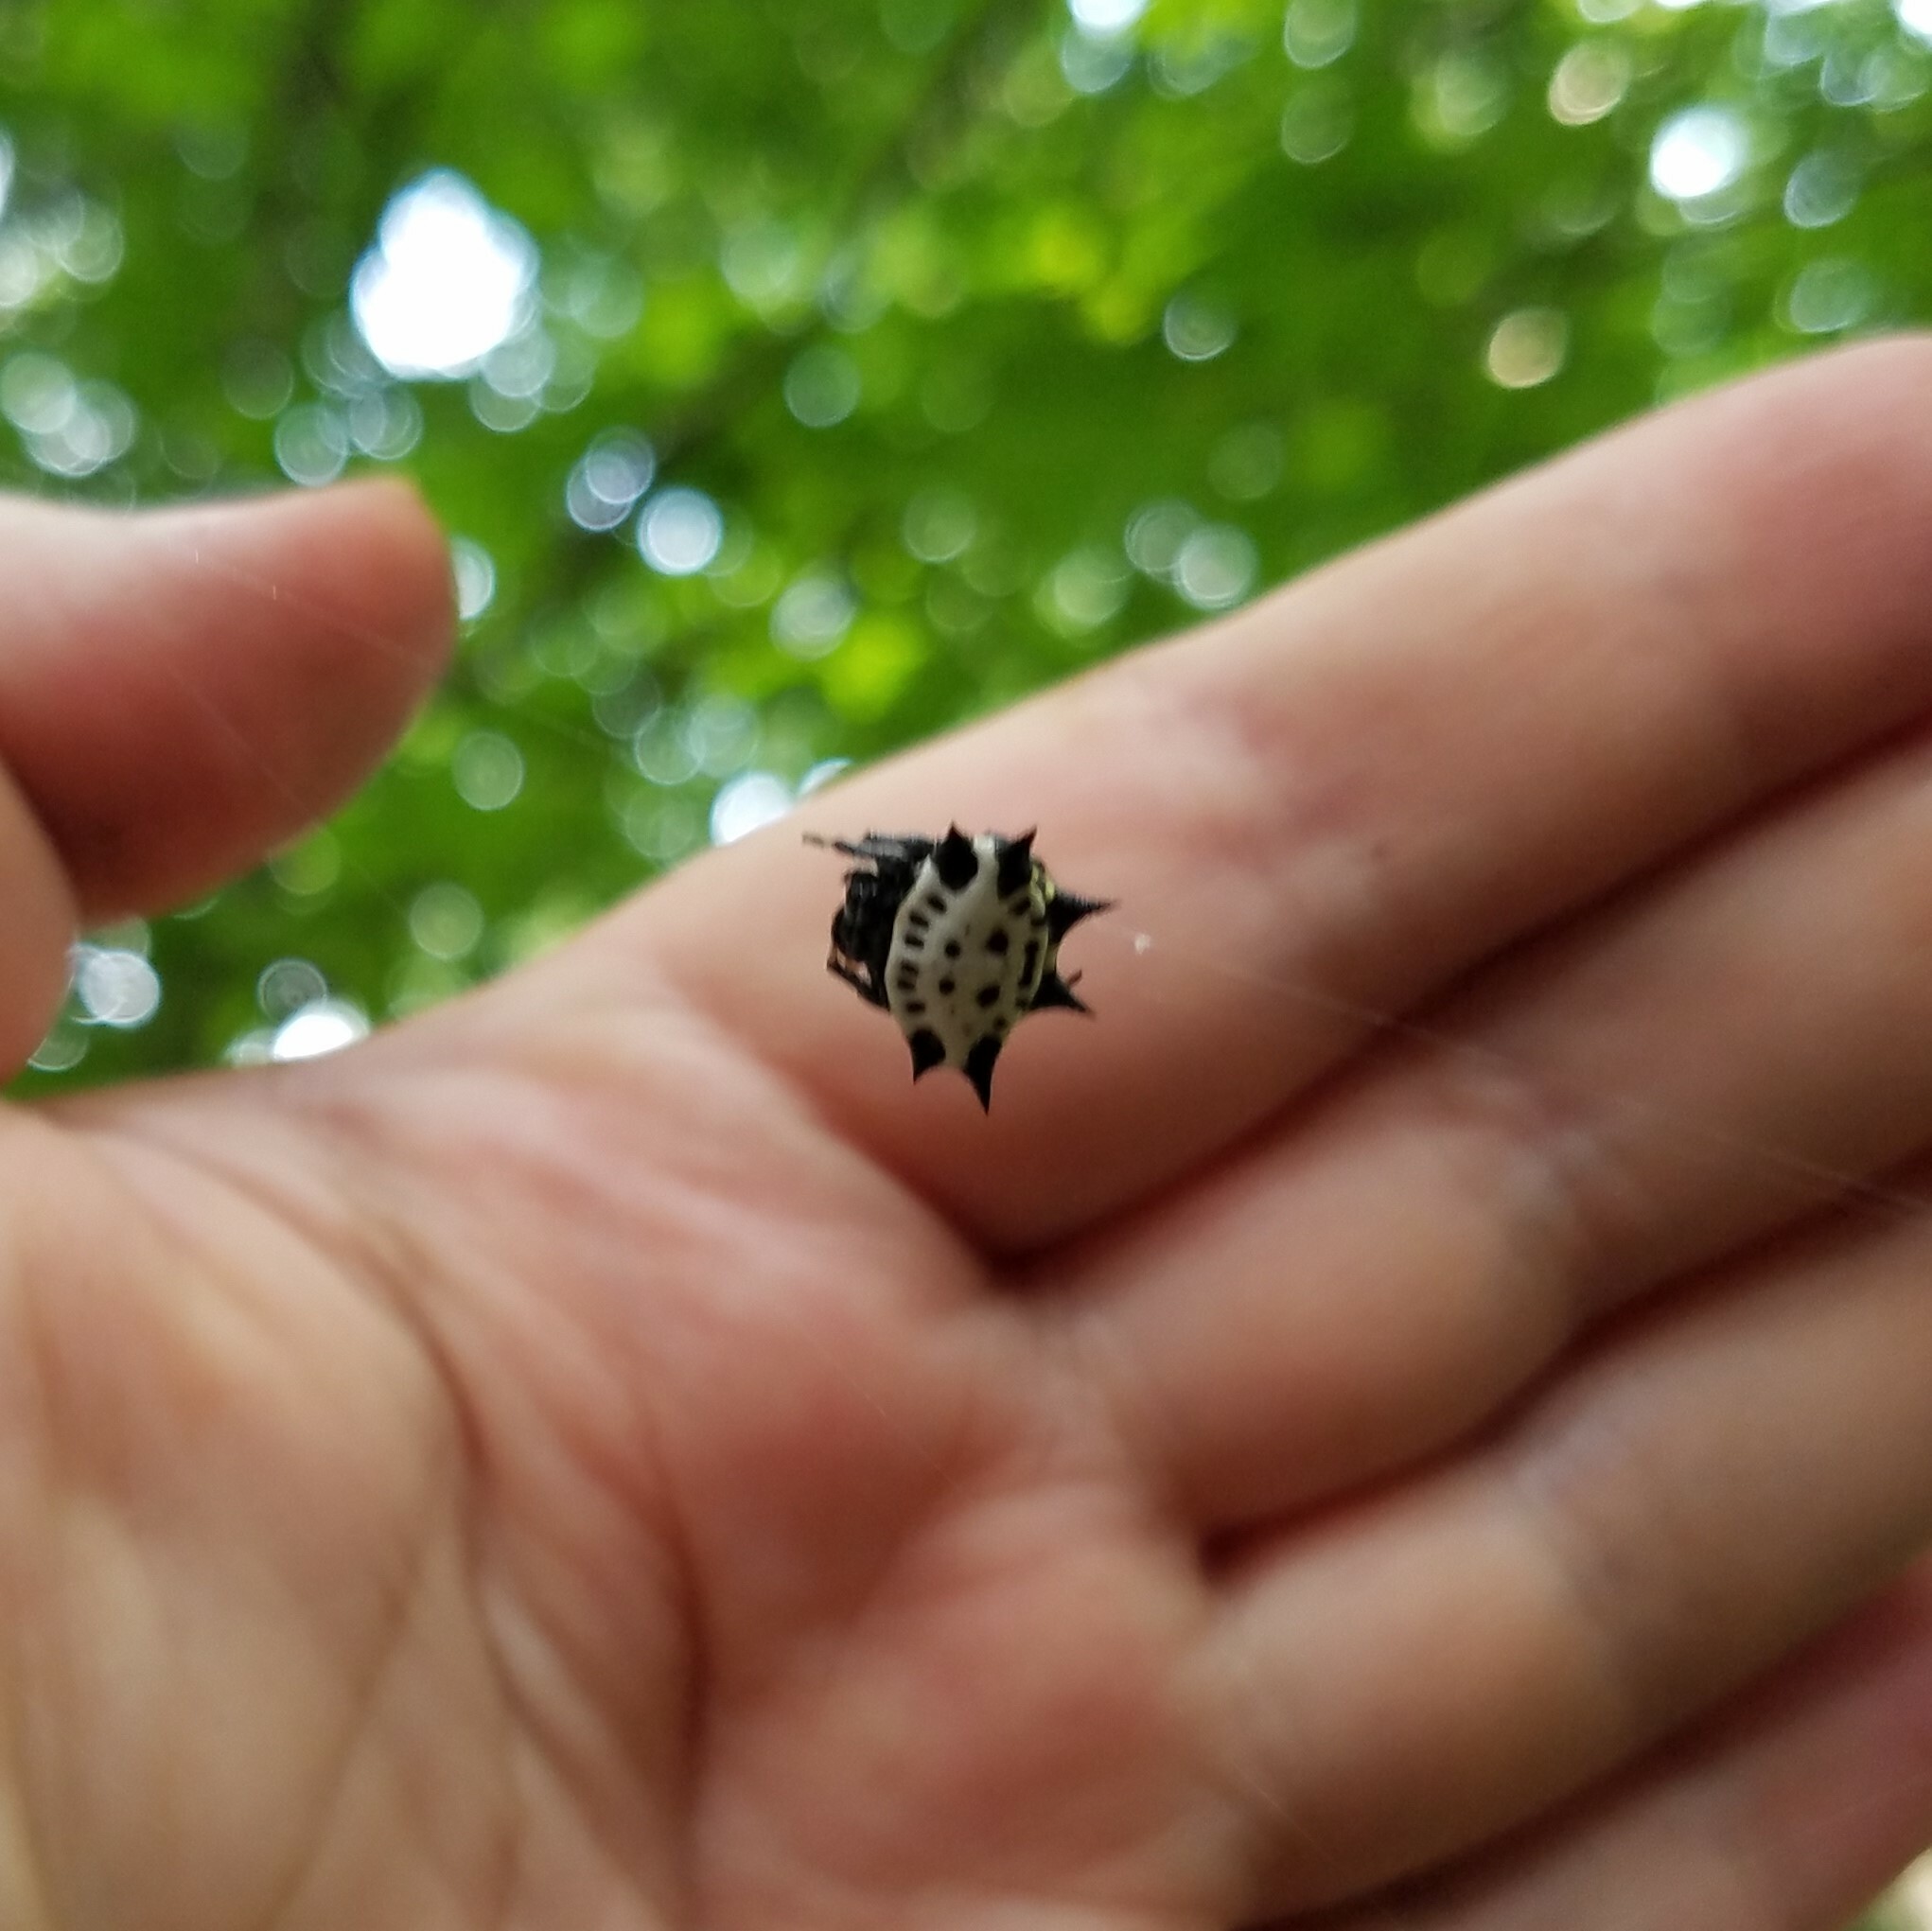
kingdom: Animalia
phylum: Arthropoda
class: Arachnida
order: Araneae
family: Araneidae
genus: Gasteracantha
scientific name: Gasteracantha cancriformis
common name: Orb weavers
